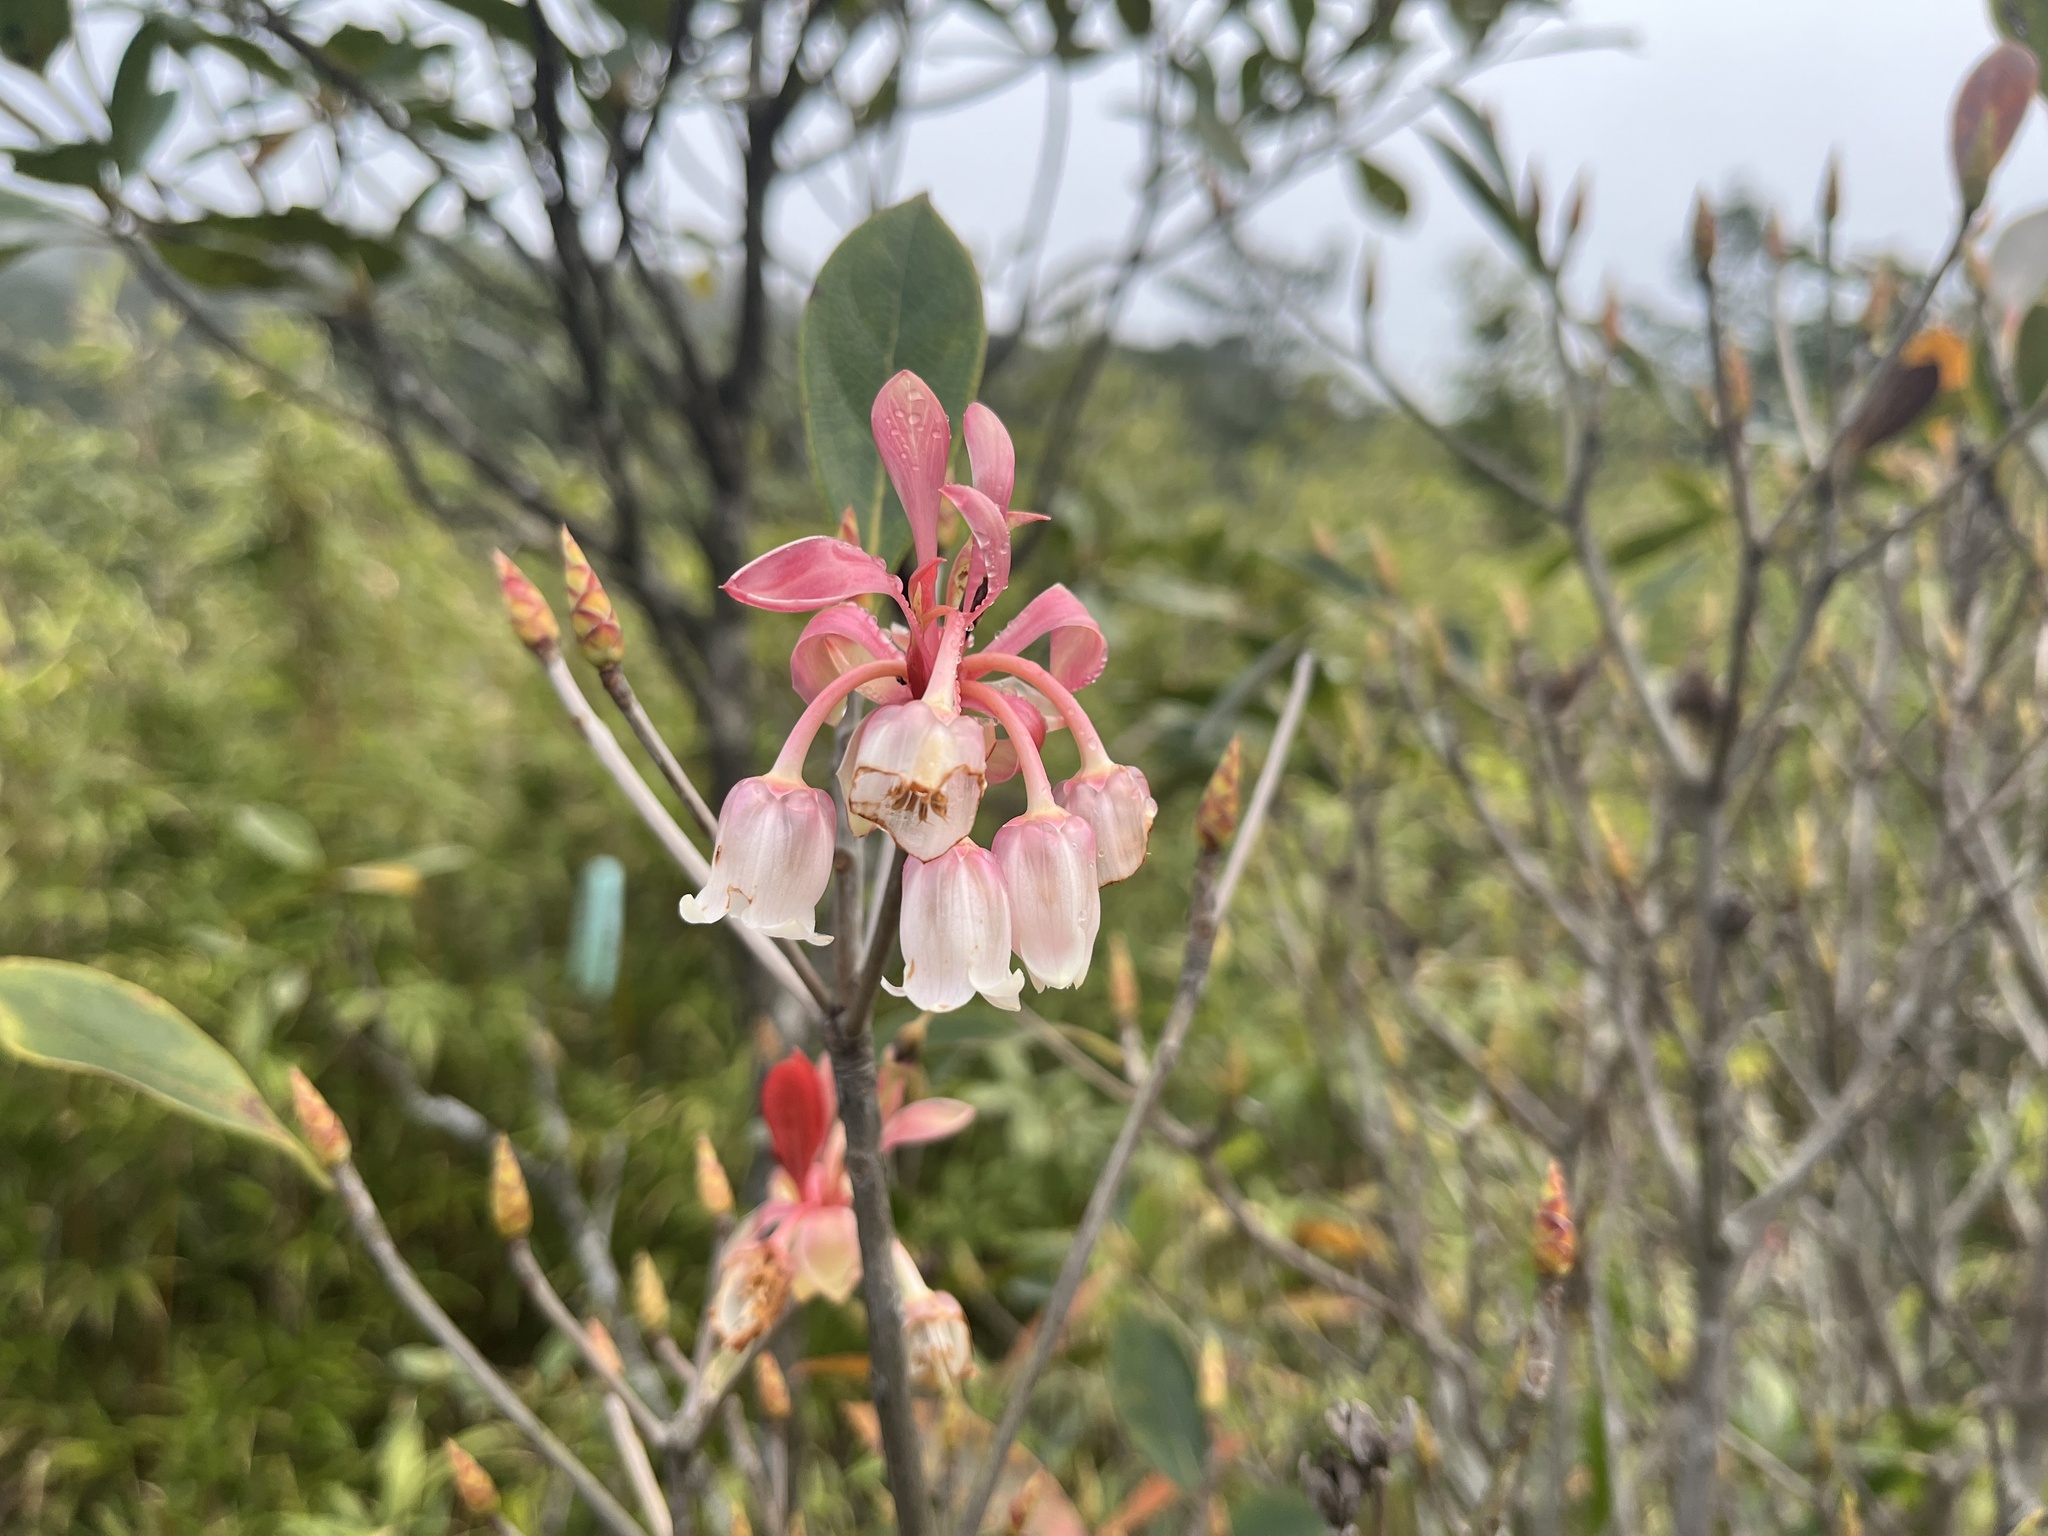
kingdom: Plantae
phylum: Tracheophyta
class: Magnoliopsida
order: Ericales
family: Ericaceae
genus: Enkianthus
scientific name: Enkianthus quinqueflorus
